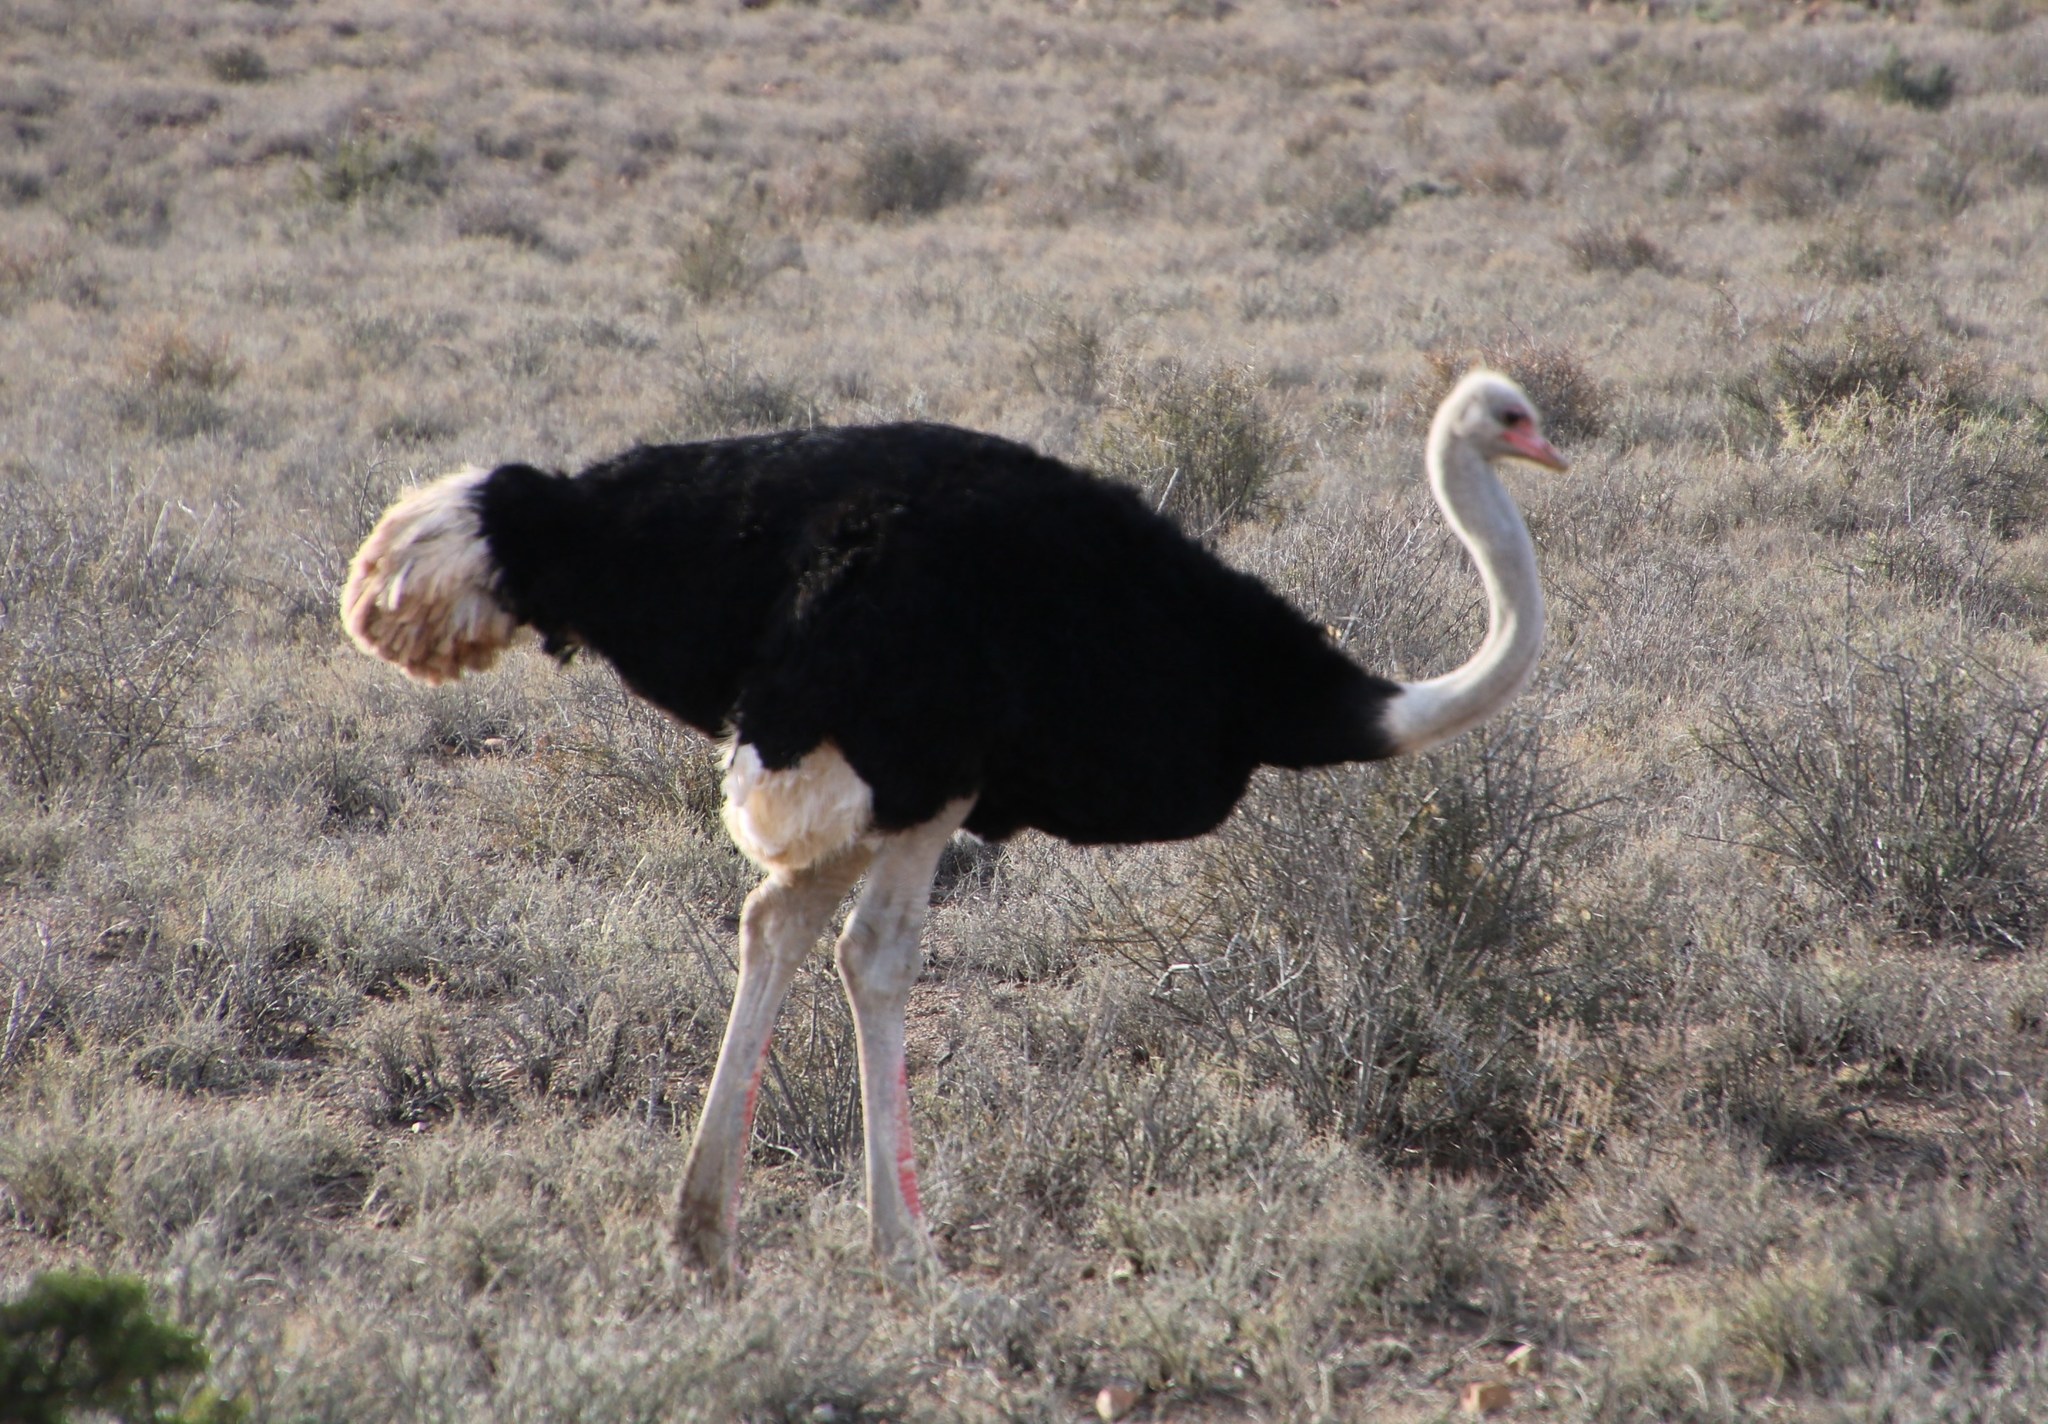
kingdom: Animalia
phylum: Chordata
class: Aves
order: Struthioniformes
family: Struthionidae
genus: Struthio
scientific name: Struthio camelus
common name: Common ostrich
